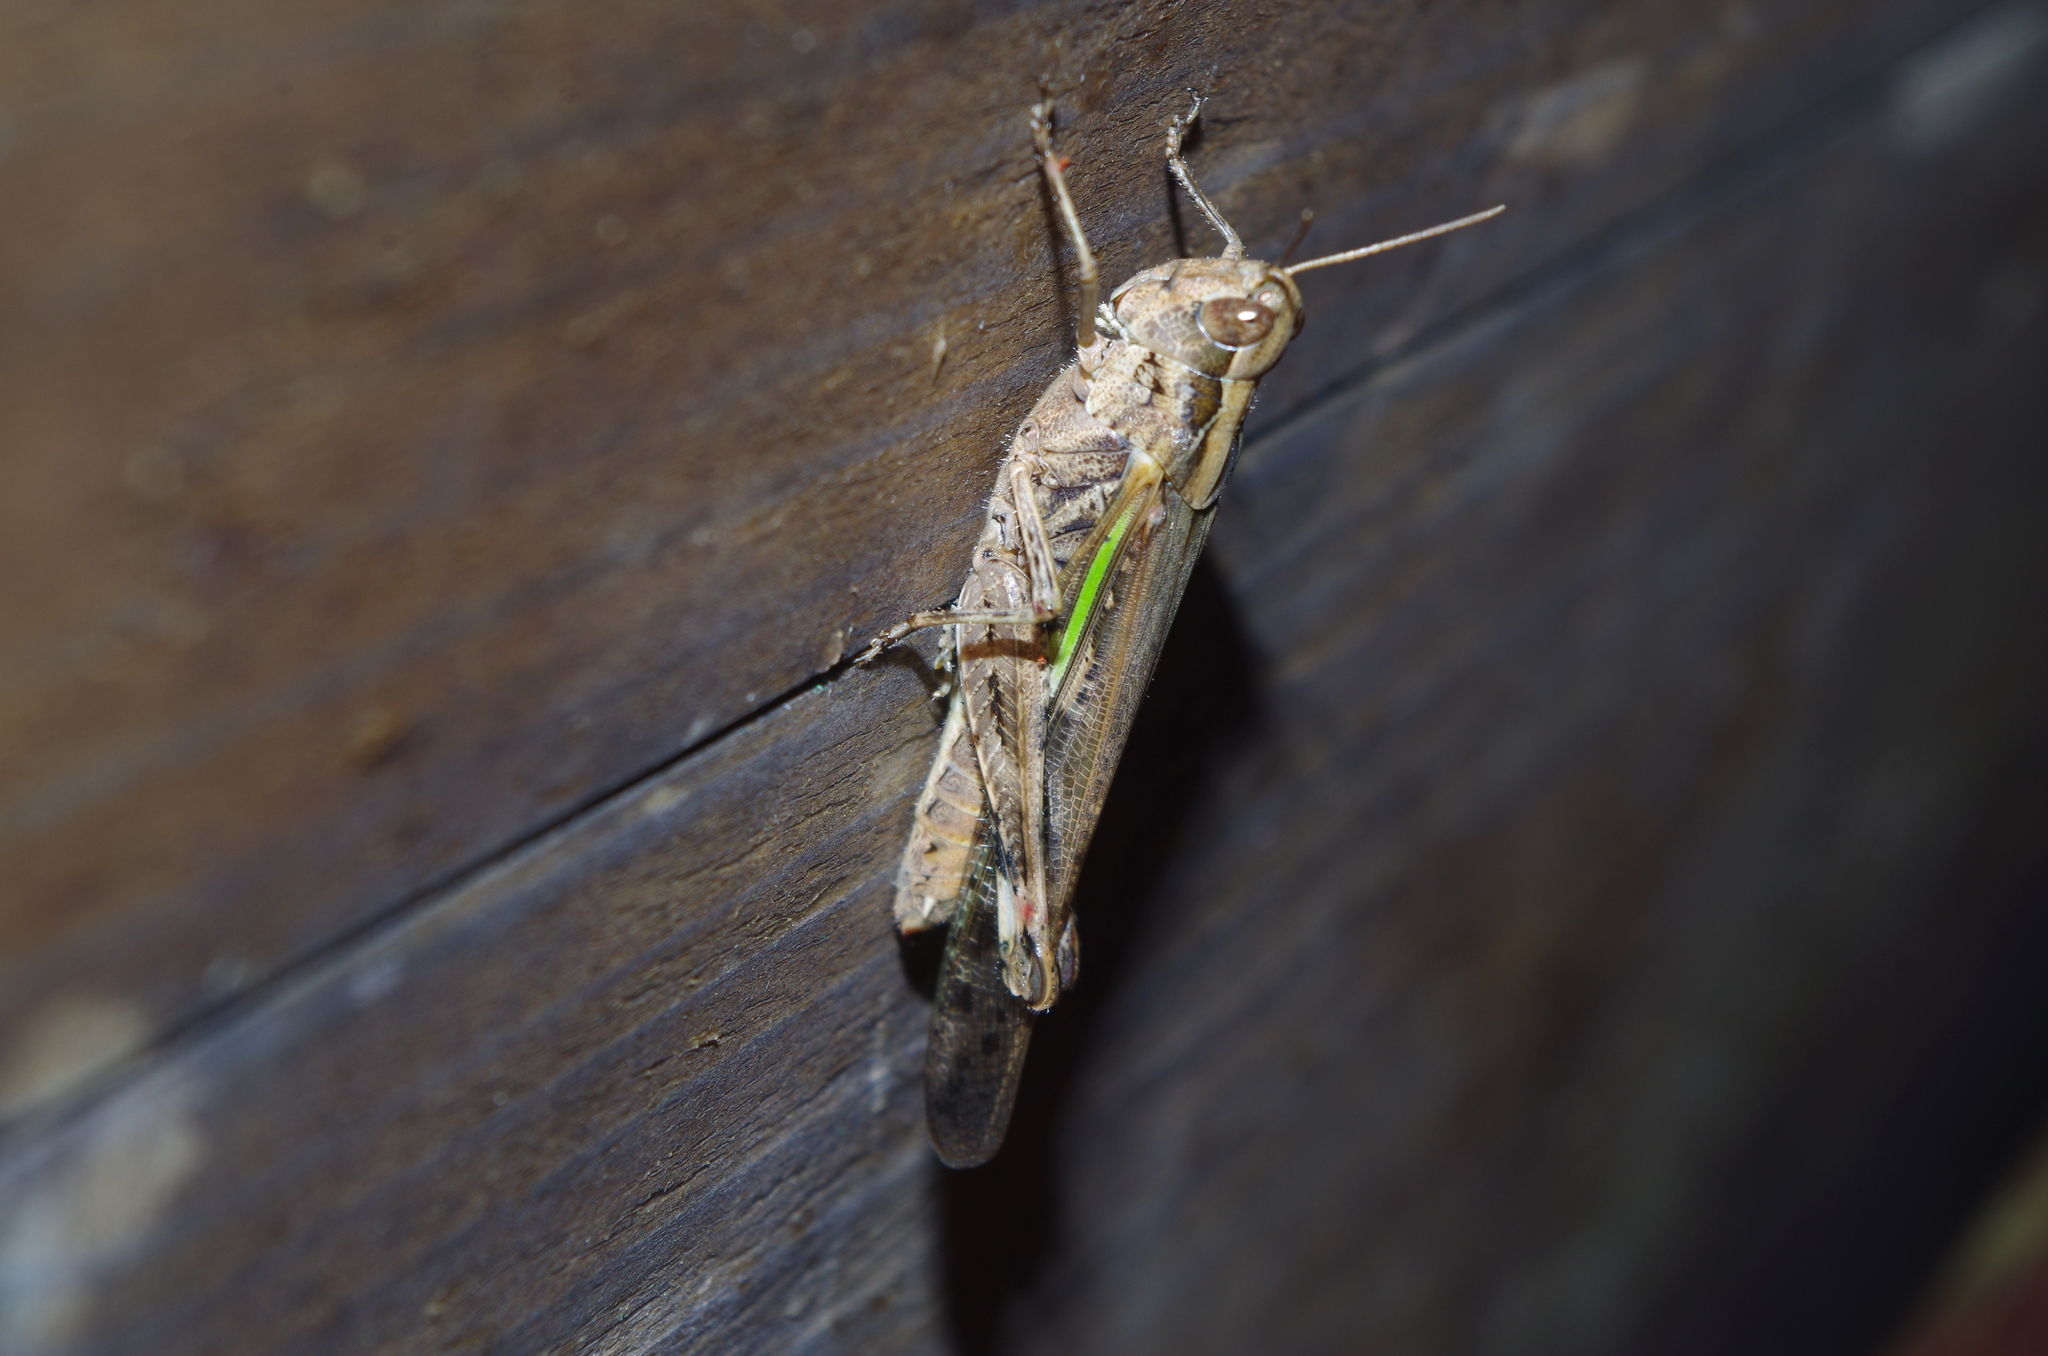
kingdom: Animalia
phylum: Arthropoda
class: Insecta
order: Orthoptera
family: Acrididae
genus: Aiolopus
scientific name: Aiolopus thalassinus
